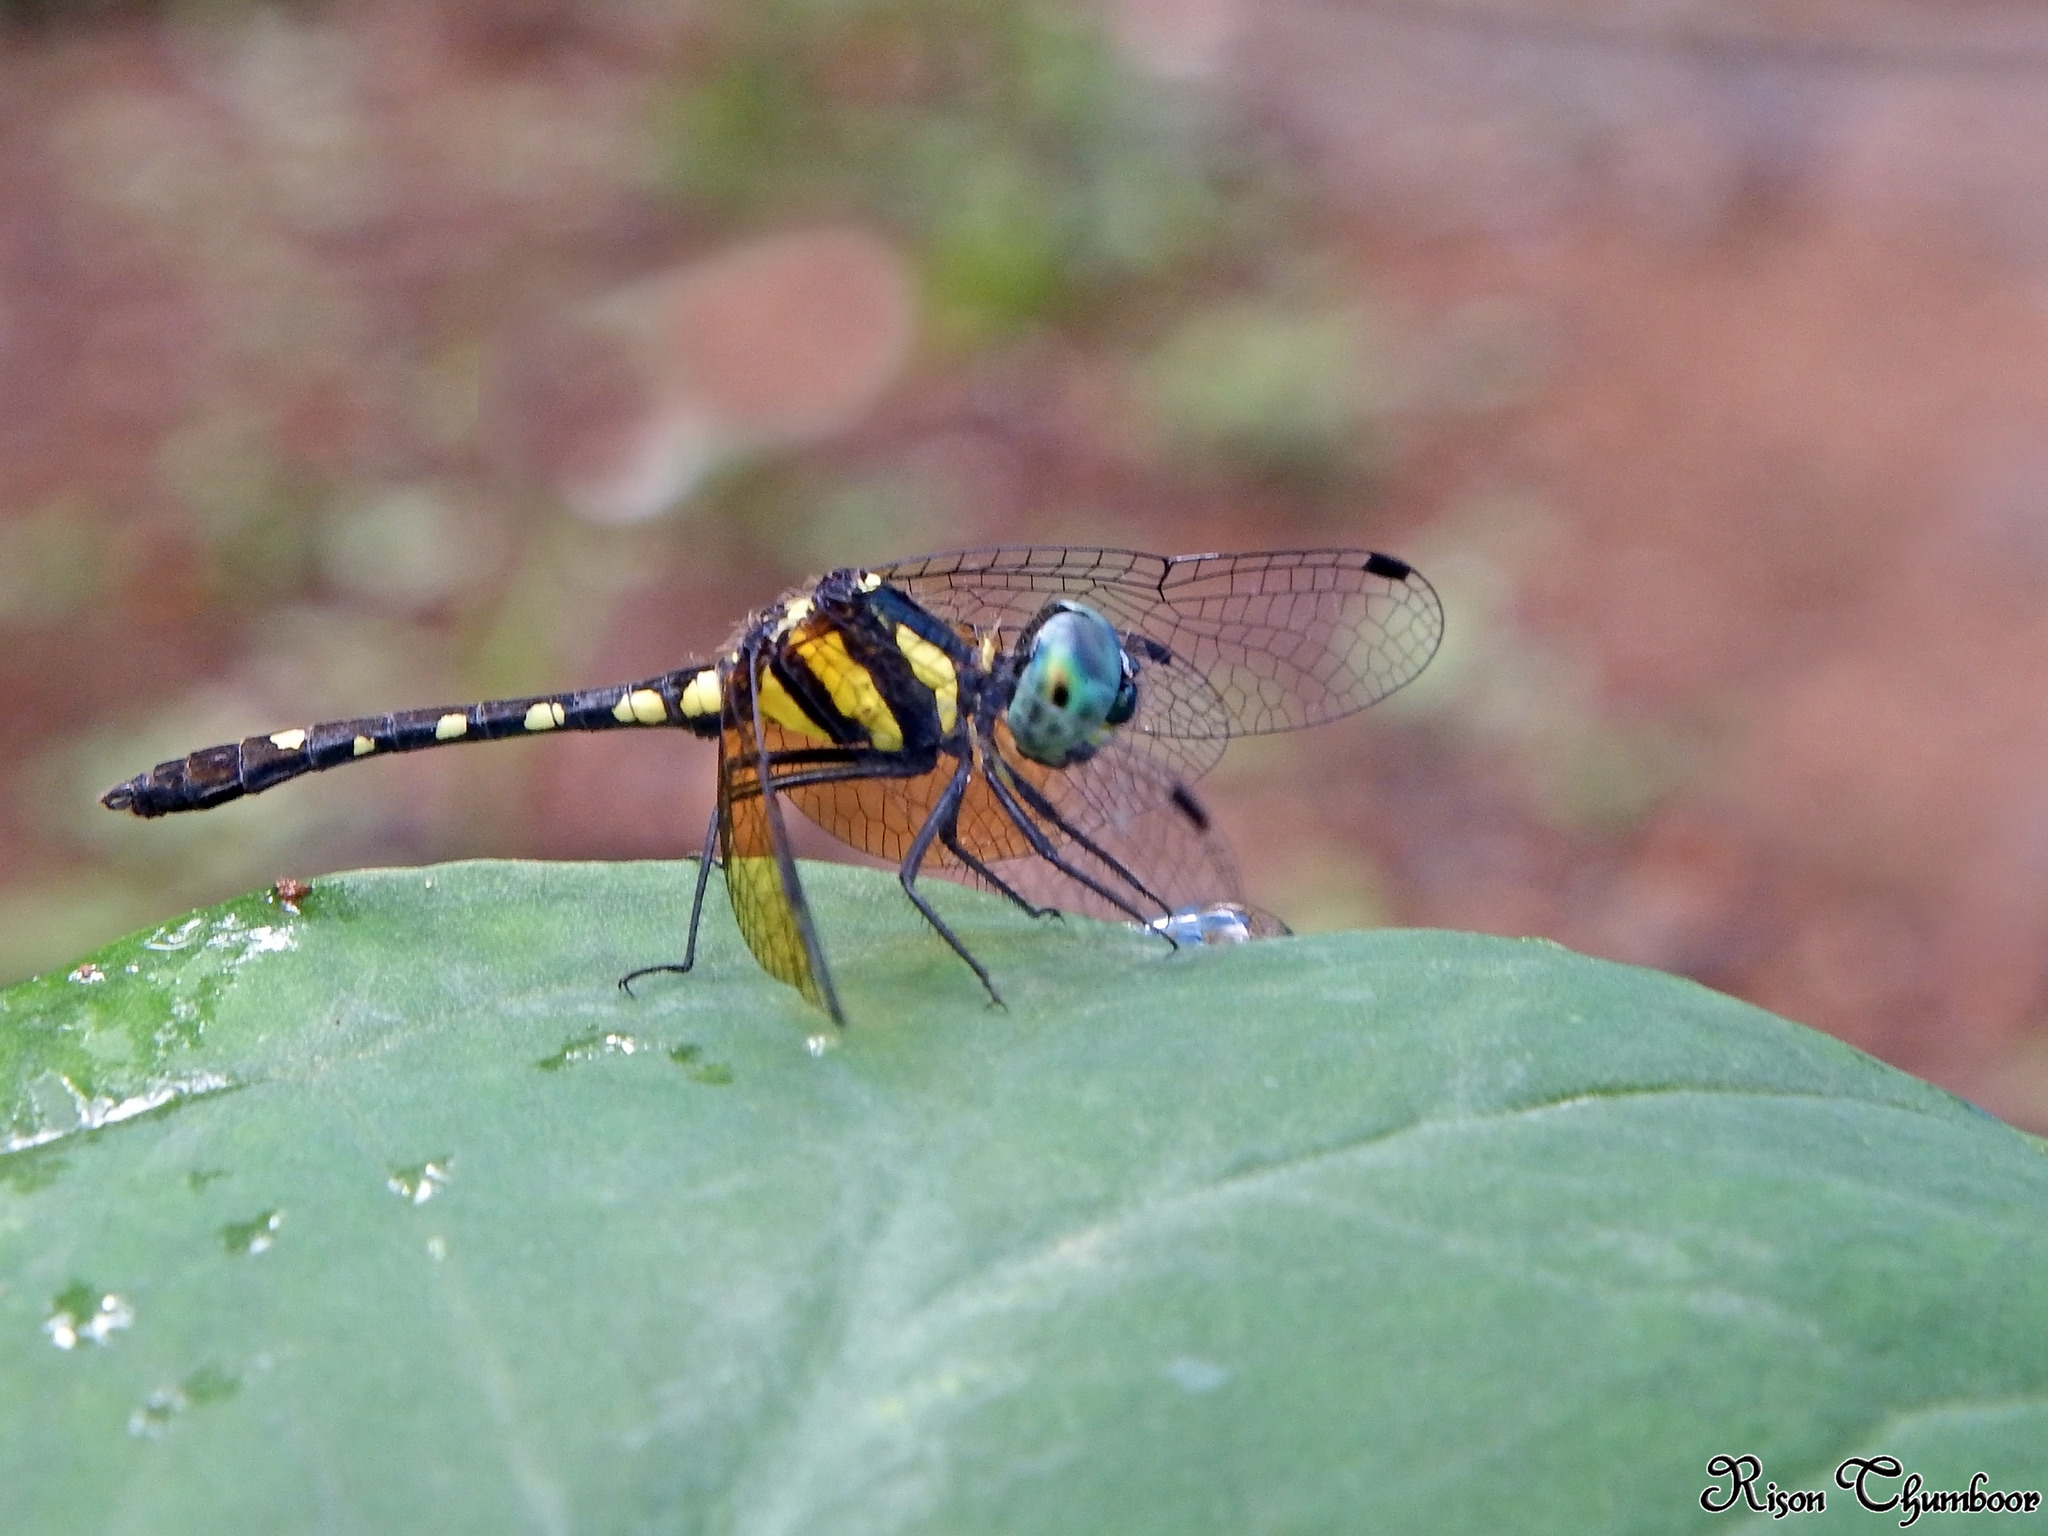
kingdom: Animalia
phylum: Arthropoda
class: Insecta
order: Odonata
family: Libellulidae
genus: Tetrathemis
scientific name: Tetrathemis platyptera
